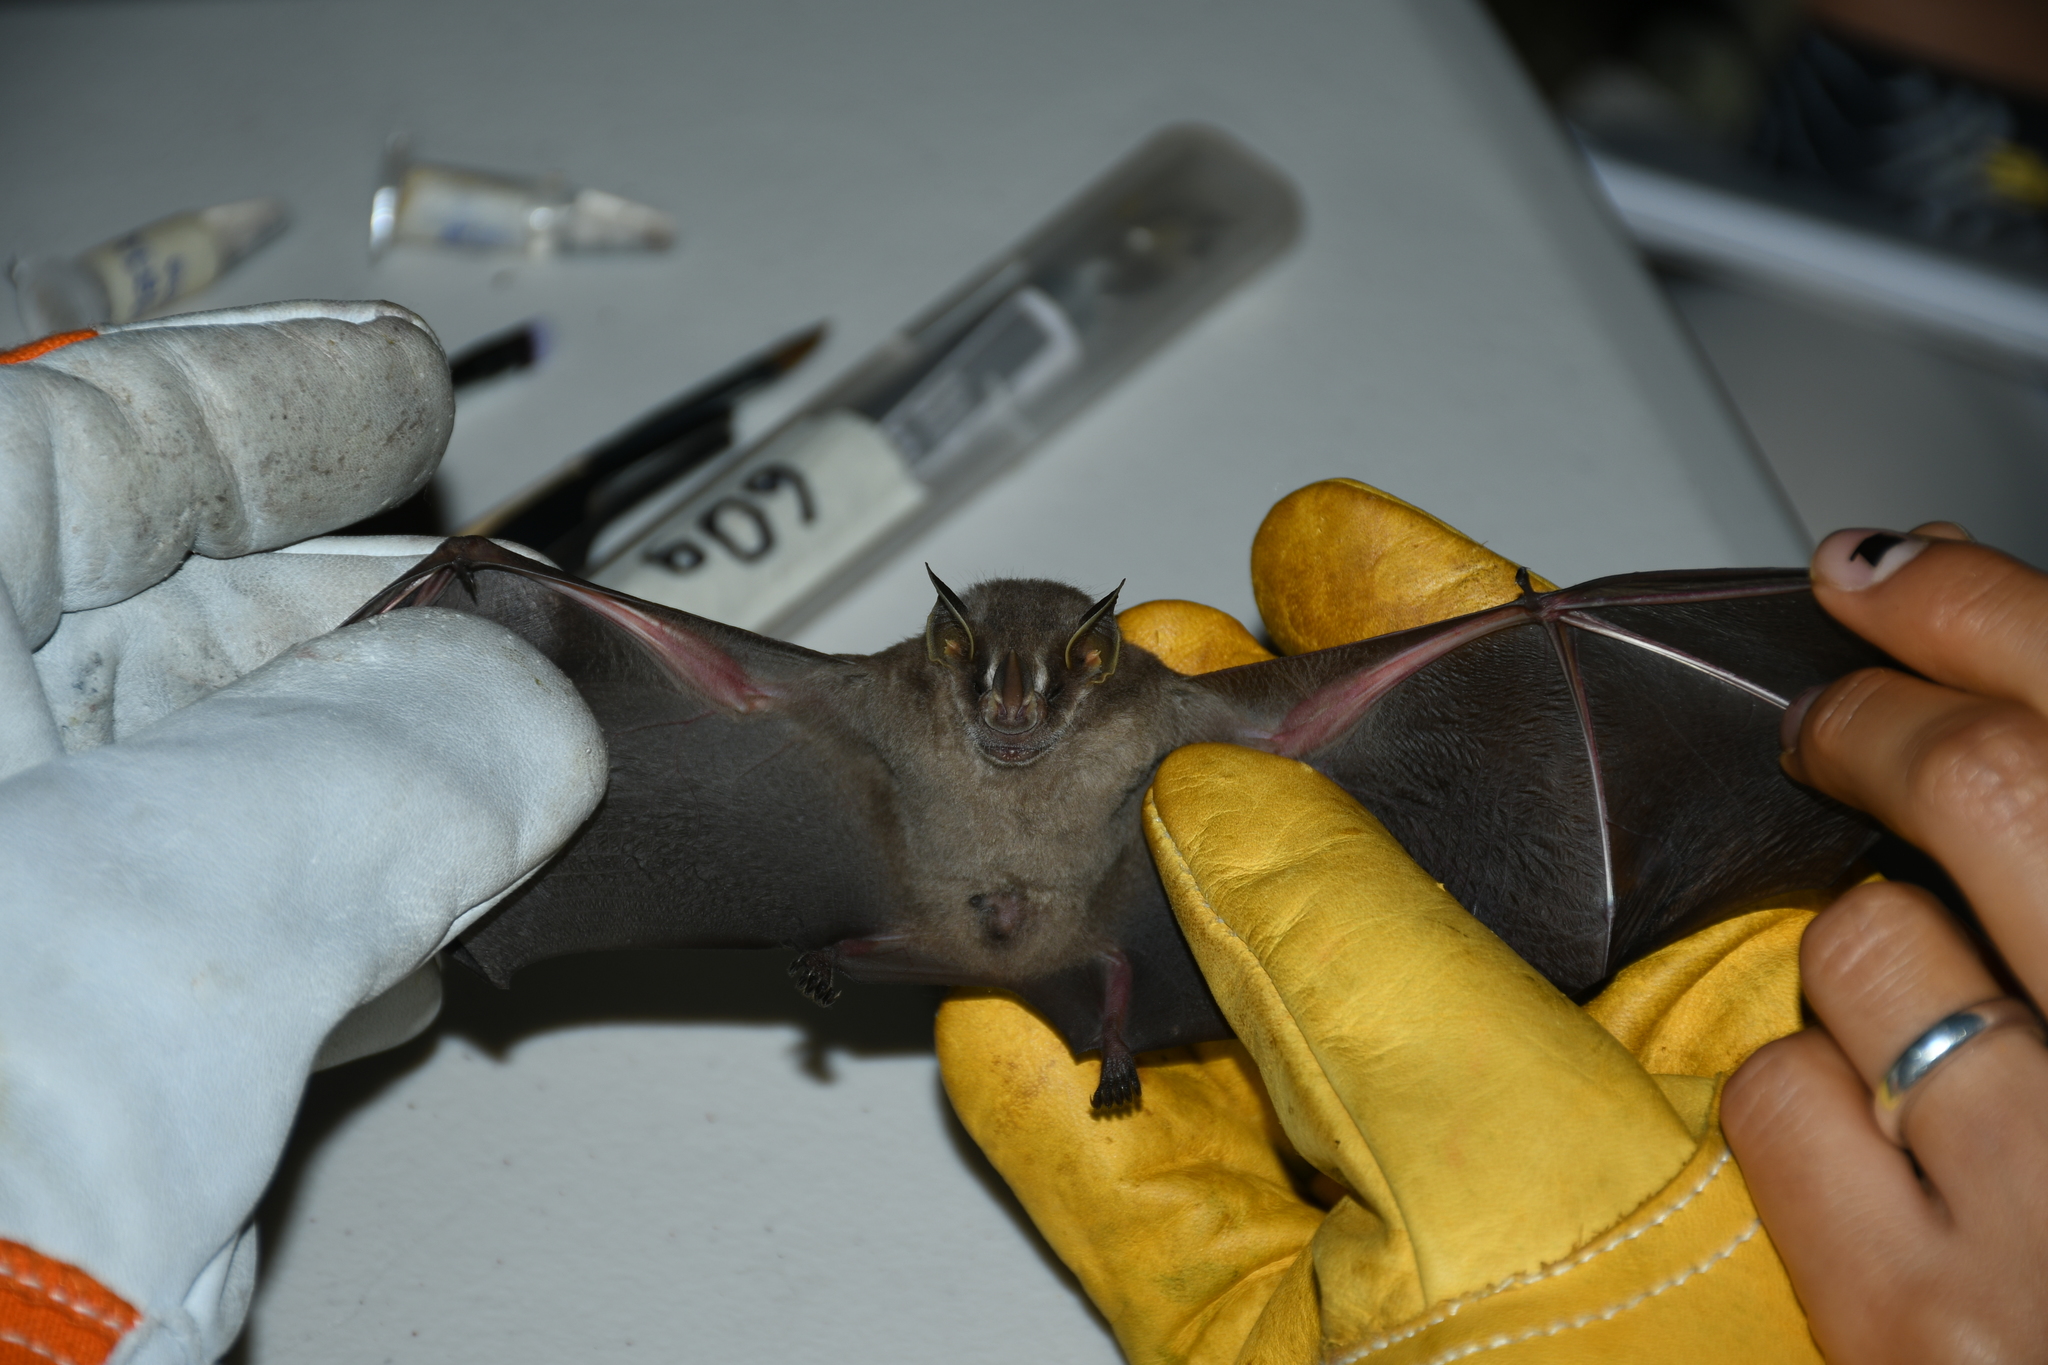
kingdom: Animalia
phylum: Chordata
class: Mammalia
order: Chiroptera
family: Phyllostomidae
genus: Artibeus
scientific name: Artibeus phaeotis
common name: Pygmy fruit-eating bat
